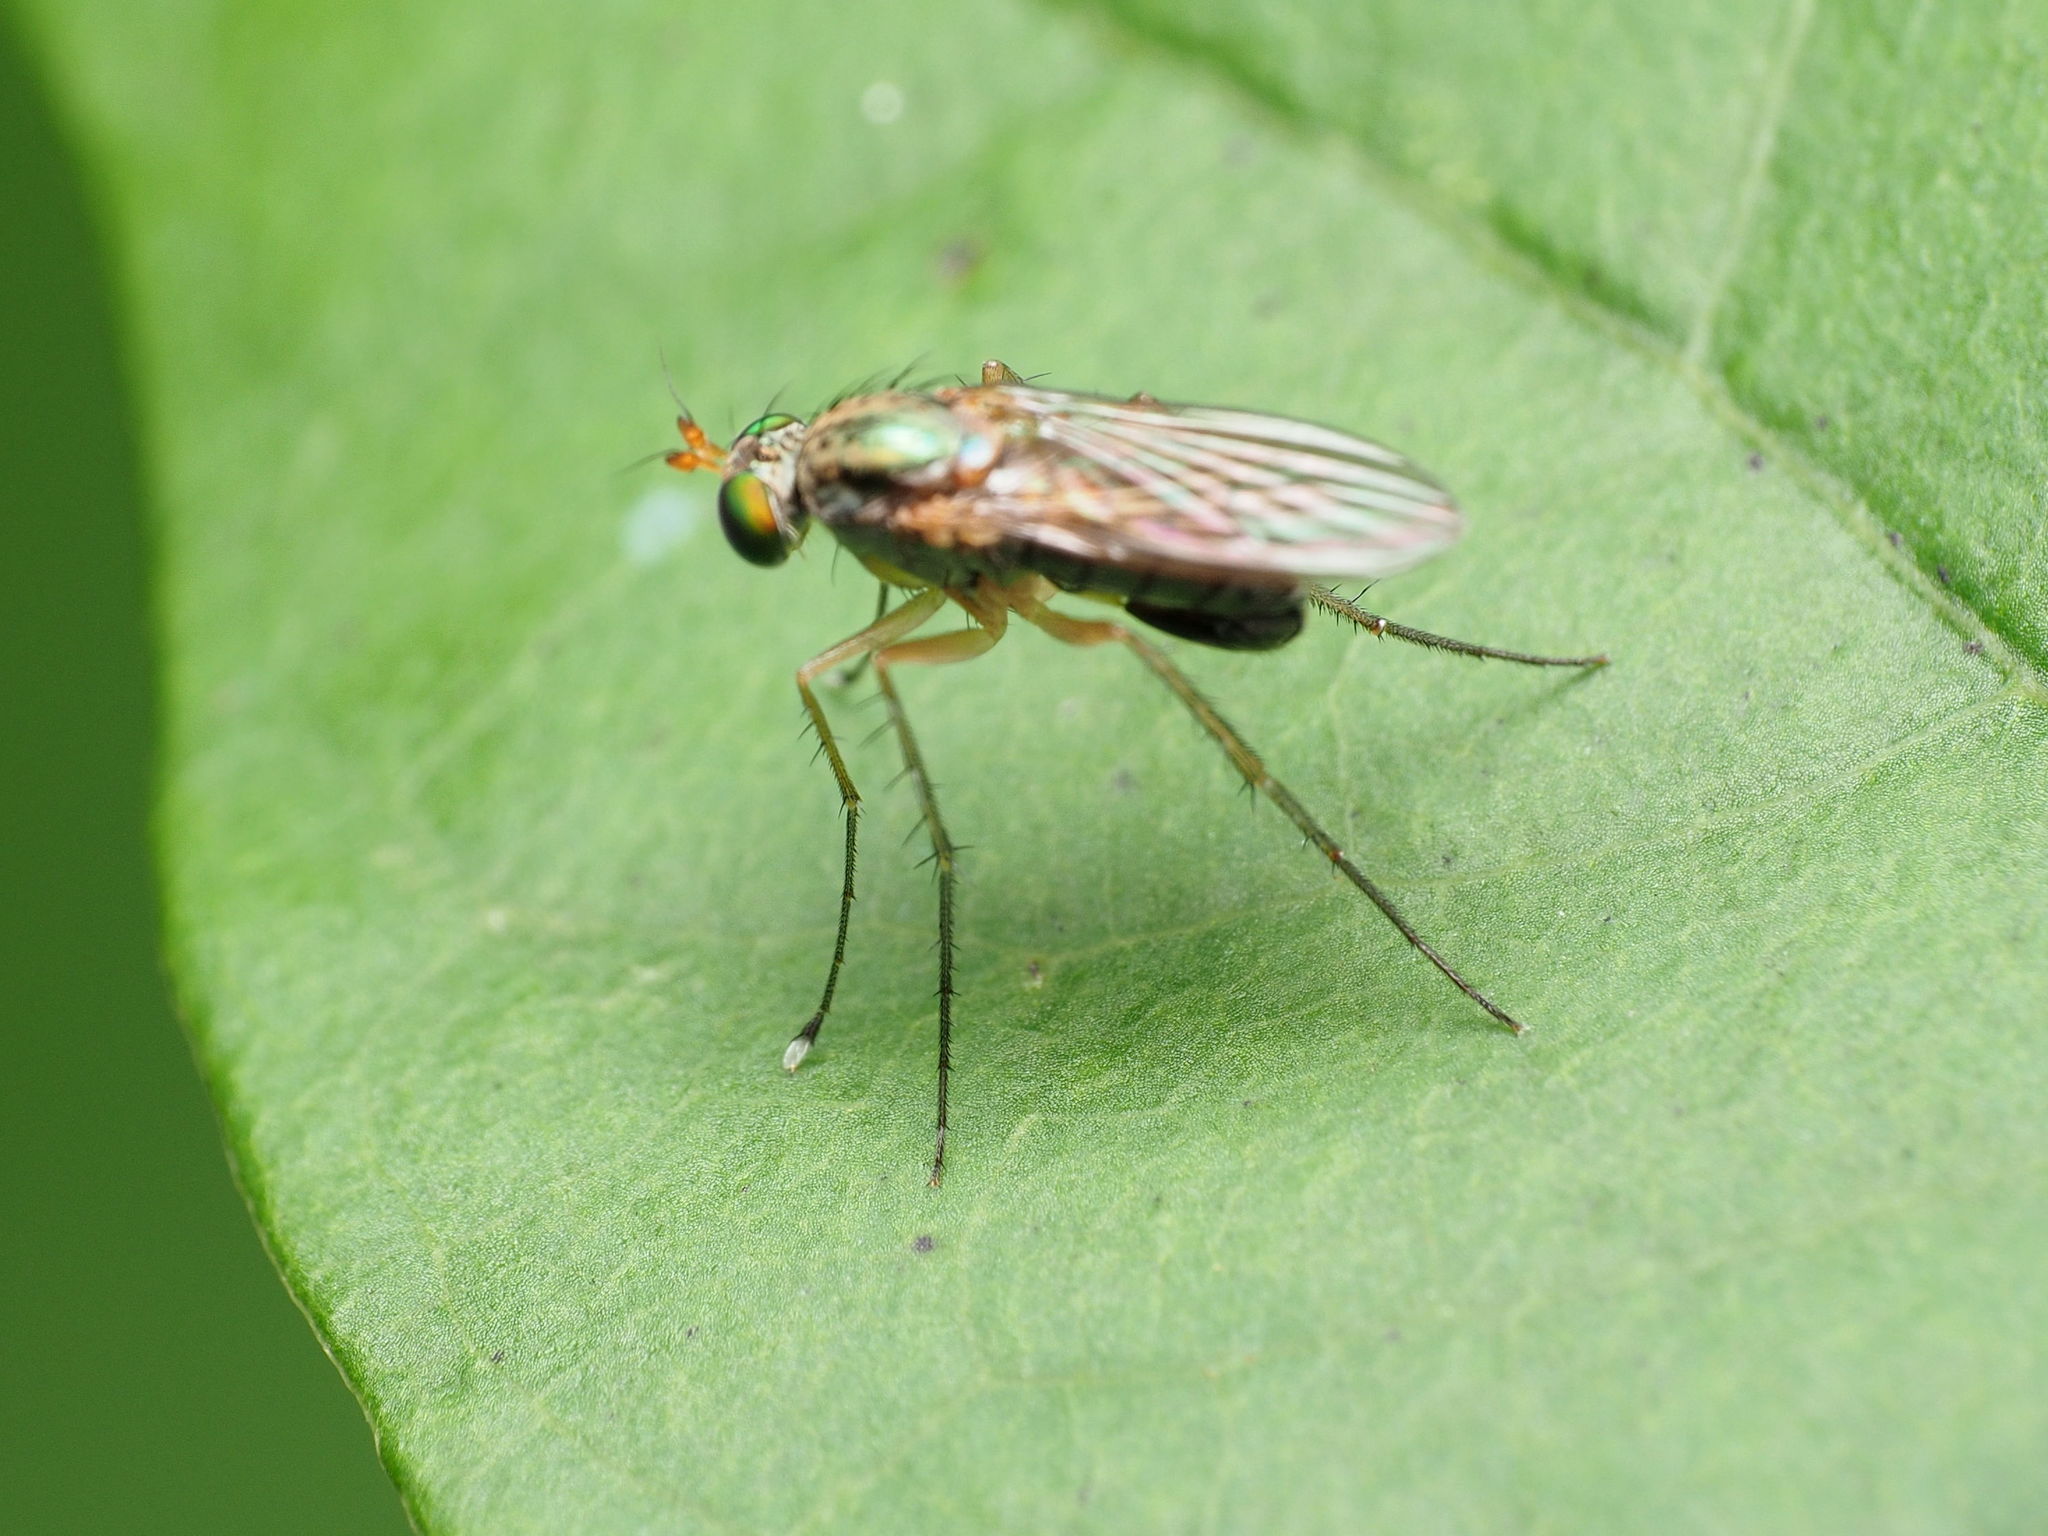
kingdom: Animalia
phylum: Arthropoda
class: Insecta
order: Diptera
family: Dolichopodidae
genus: Dolichopus
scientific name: Dolichopus funditor
